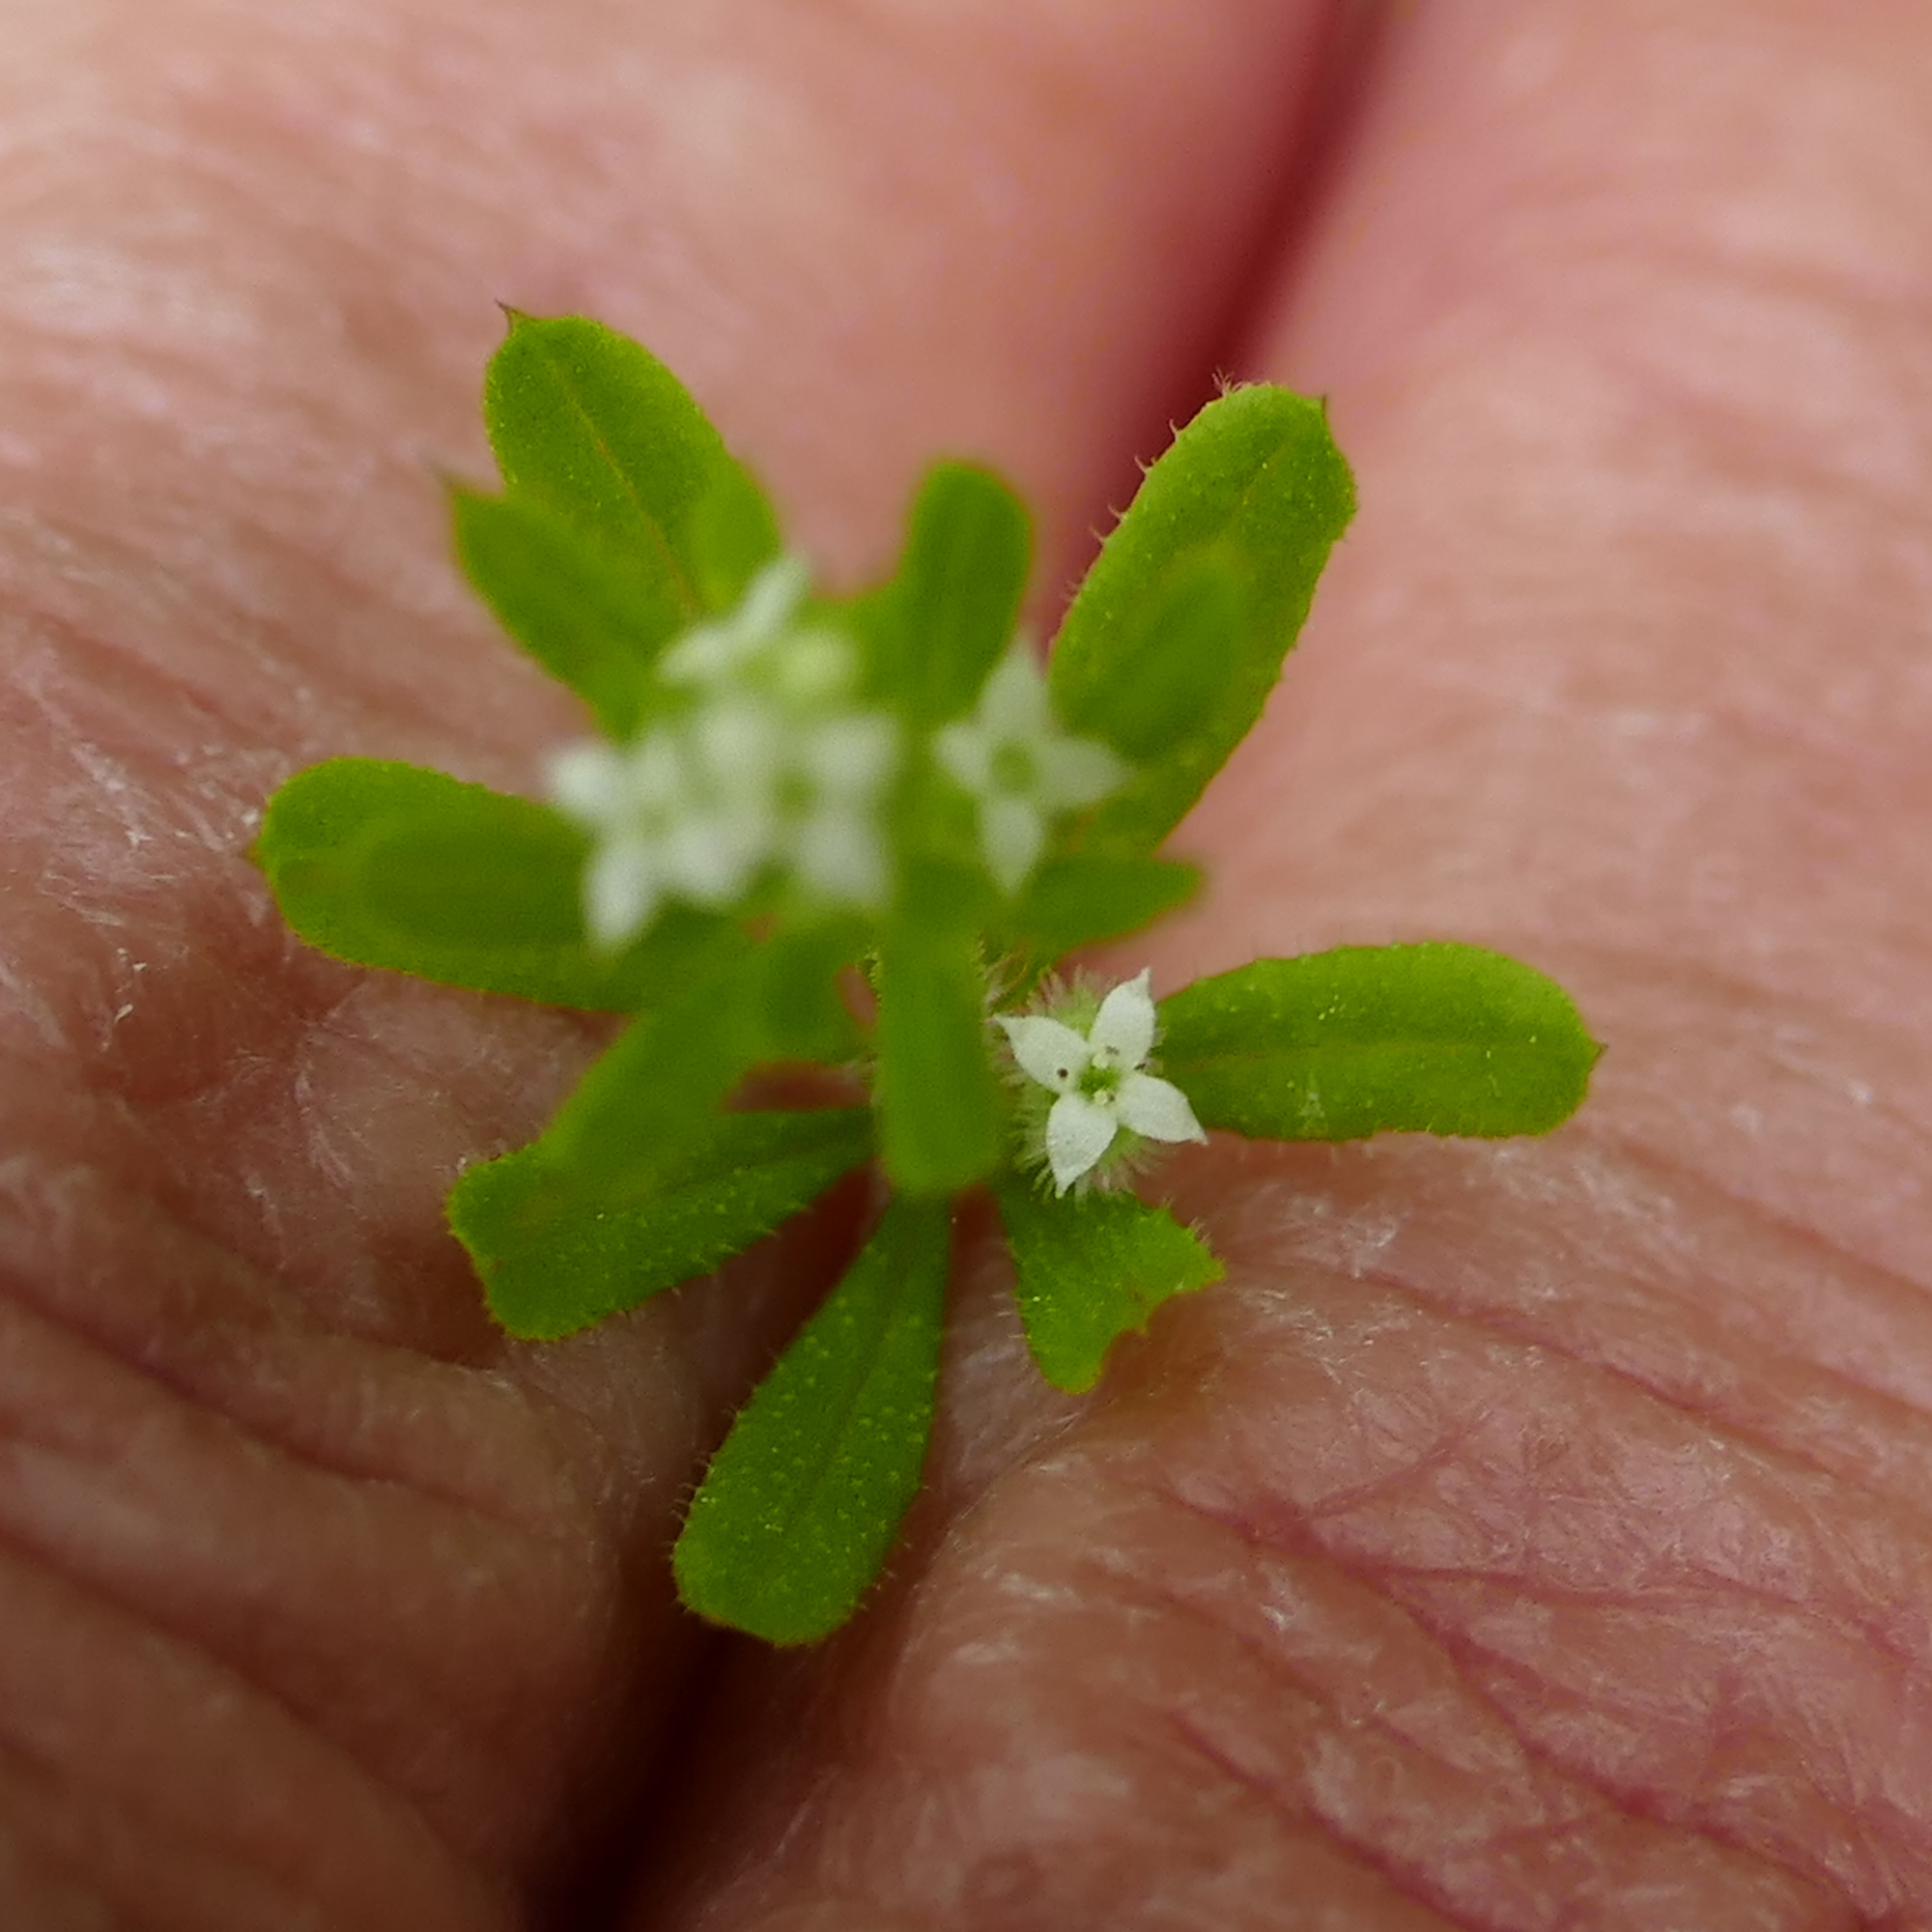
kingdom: Plantae
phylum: Tracheophyta
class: Magnoliopsida
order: Gentianales
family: Rubiaceae
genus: Galium
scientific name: Galium aparine
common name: Cleavers
